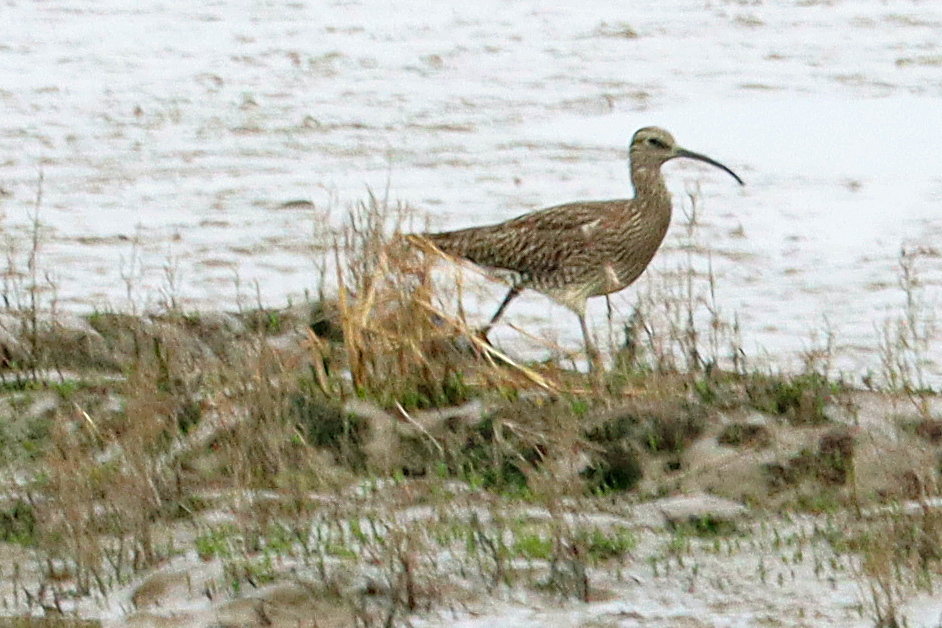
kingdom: Animalia
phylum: Chordata
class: Aves
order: Charadriiformes
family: Scolopacidae
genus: Numenius
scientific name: Numenius phaeopus
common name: Whimbrel
